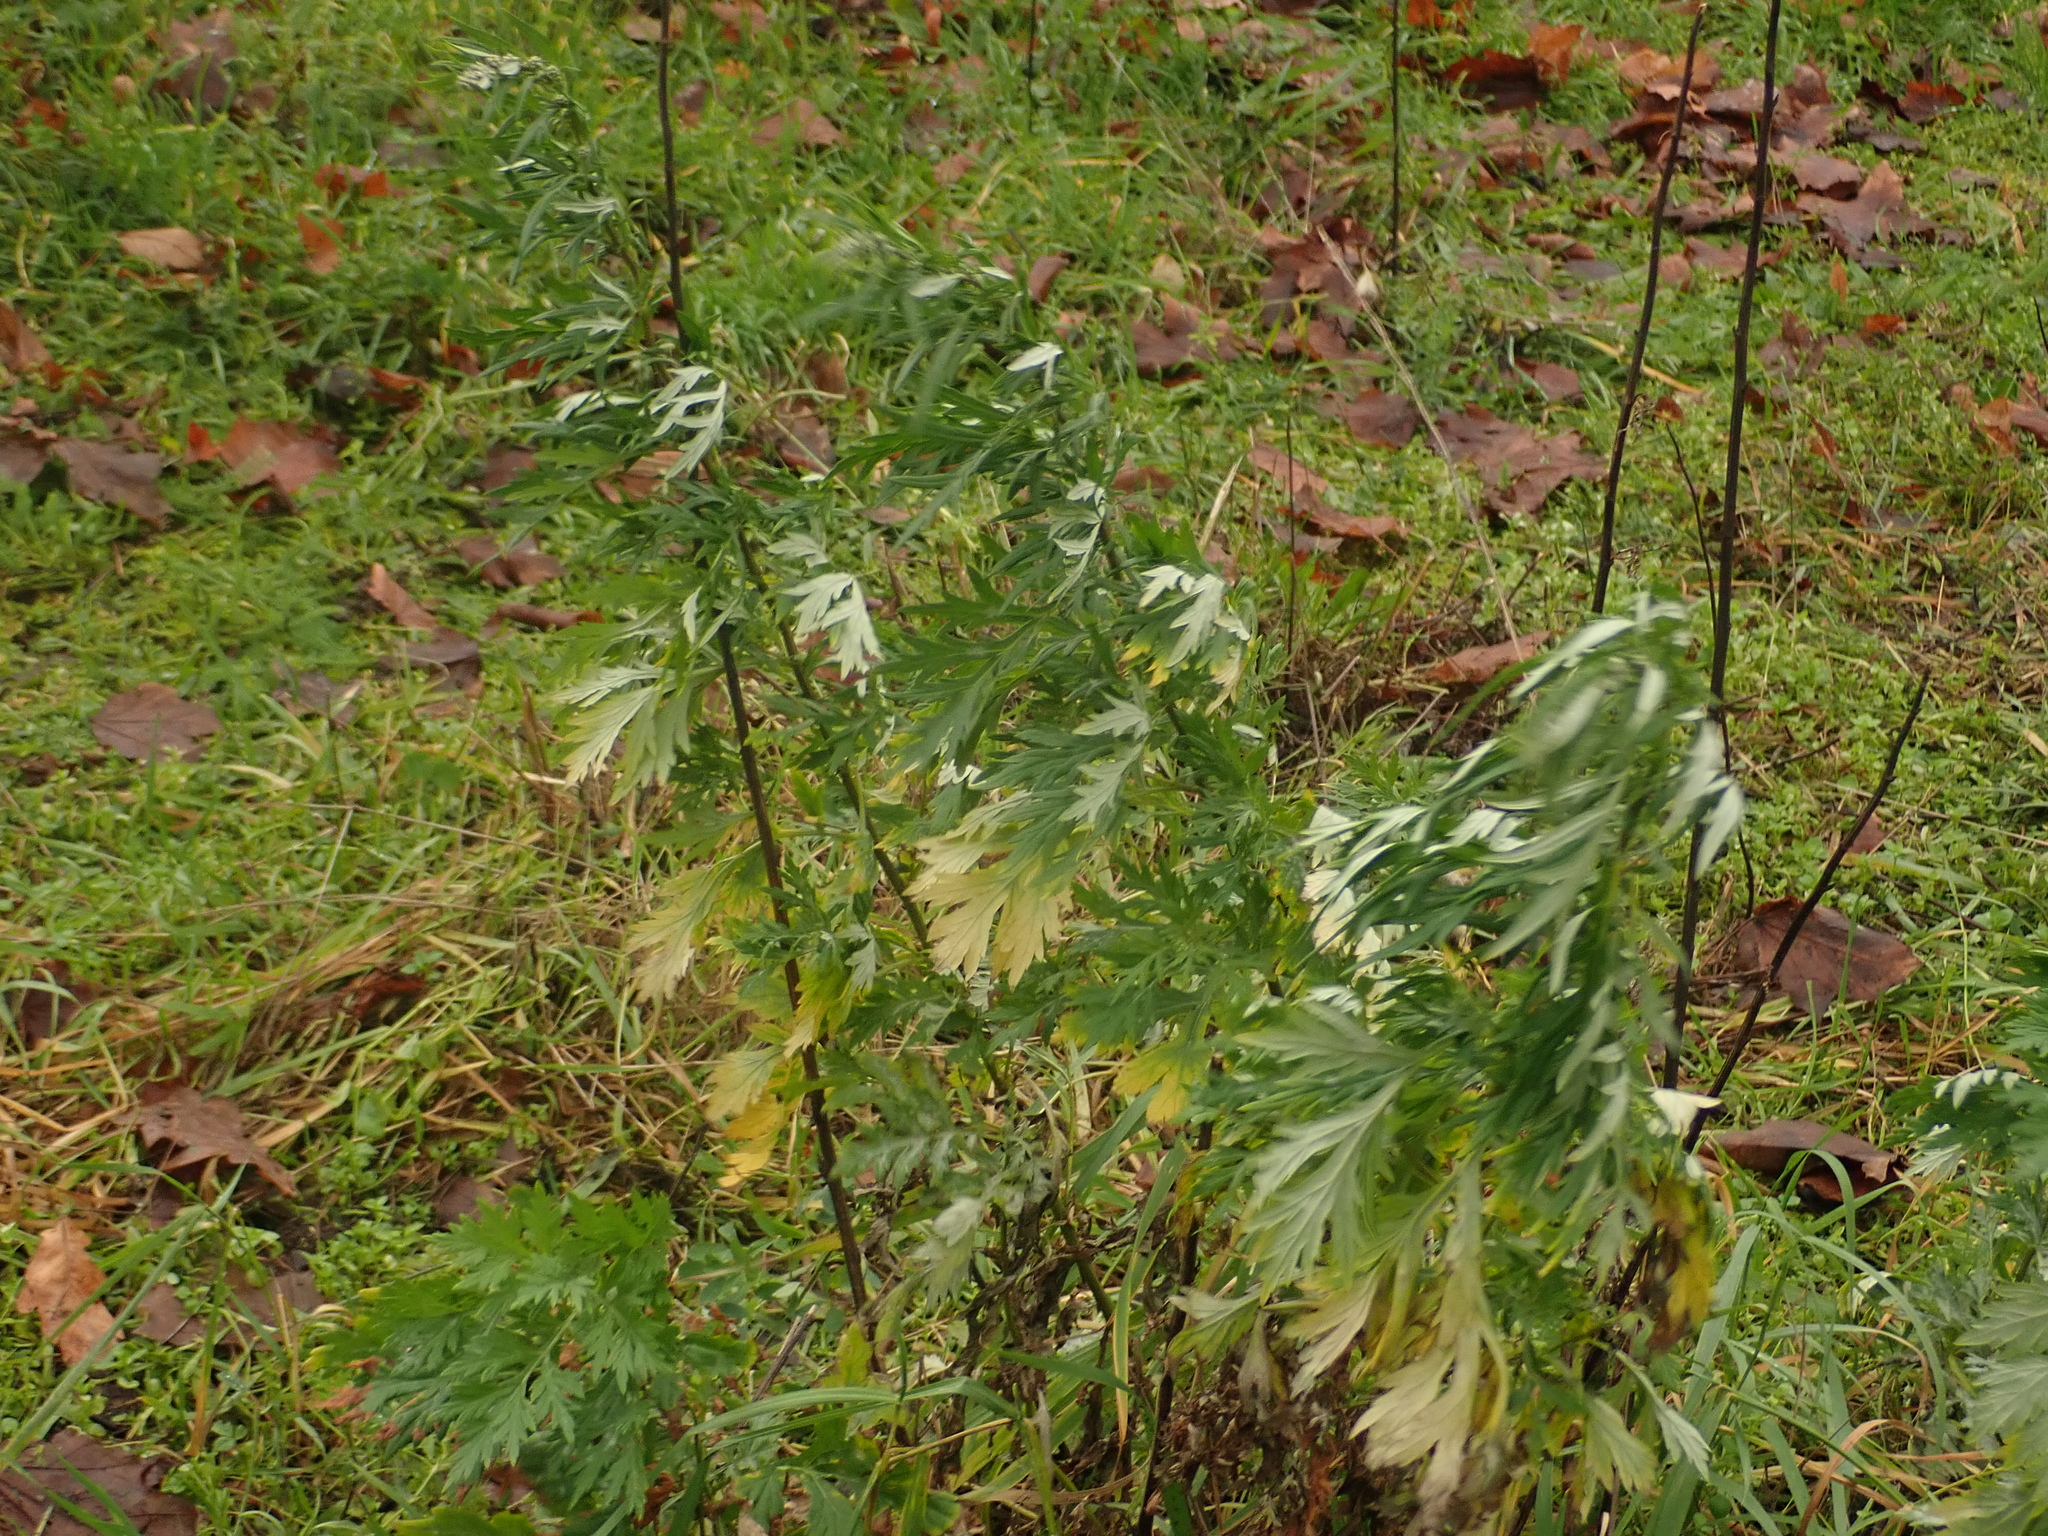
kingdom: Plantae
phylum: Tracheophyta
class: Magnoliopsida
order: Asterales
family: Asteraceae
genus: Artemisia
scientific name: Artemisia vulgaris
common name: Mugwort
